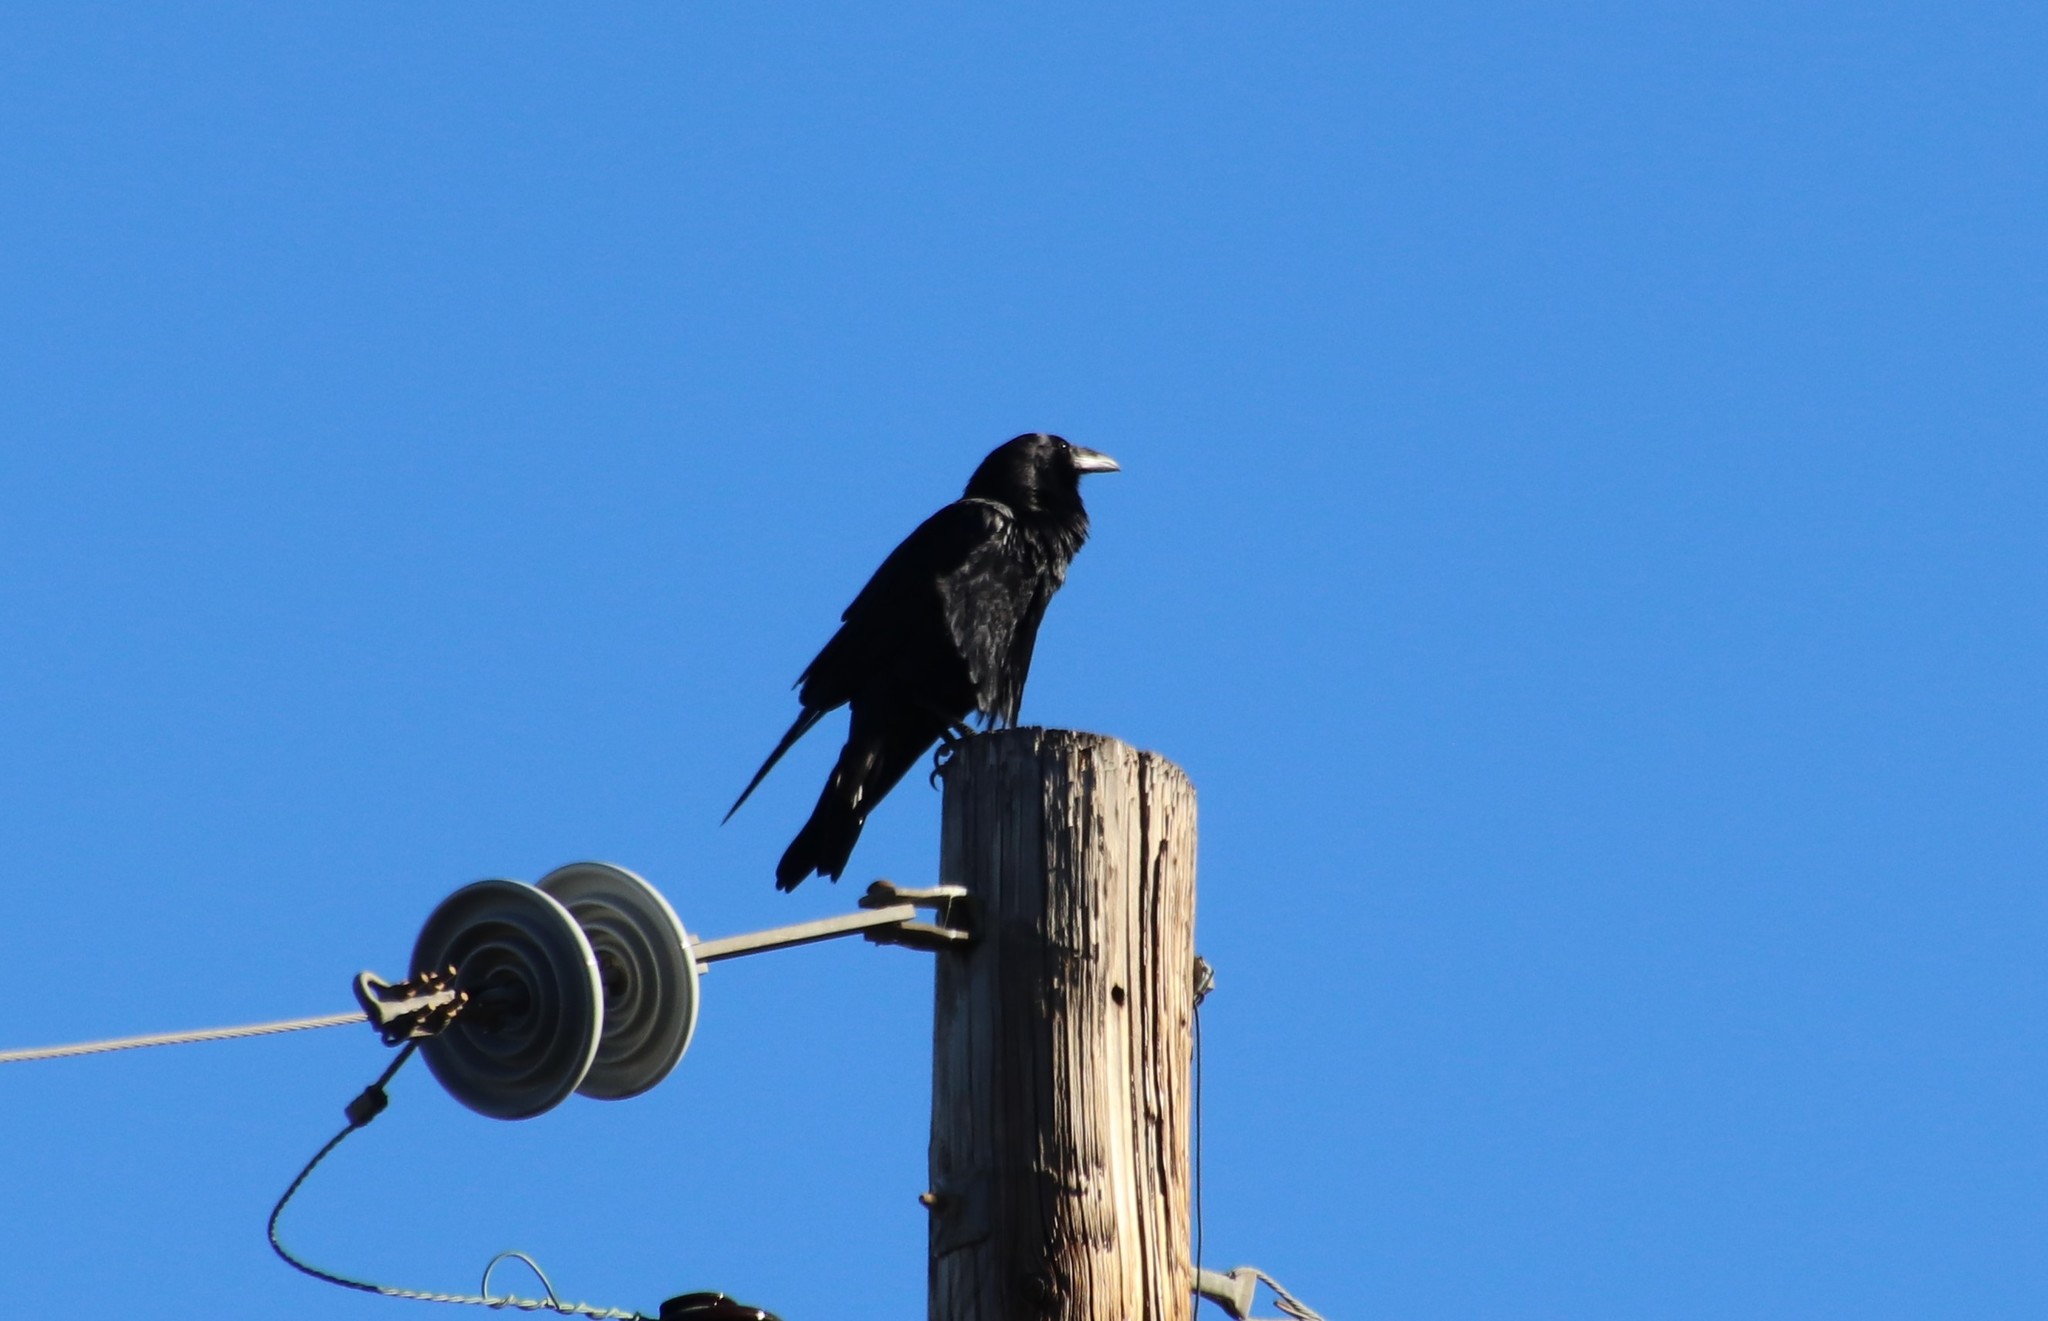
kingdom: Animalia
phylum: Chordata
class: Aves
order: Passeriformes
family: Corvidae
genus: Corvus
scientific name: Corvus corax
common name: Common raven
